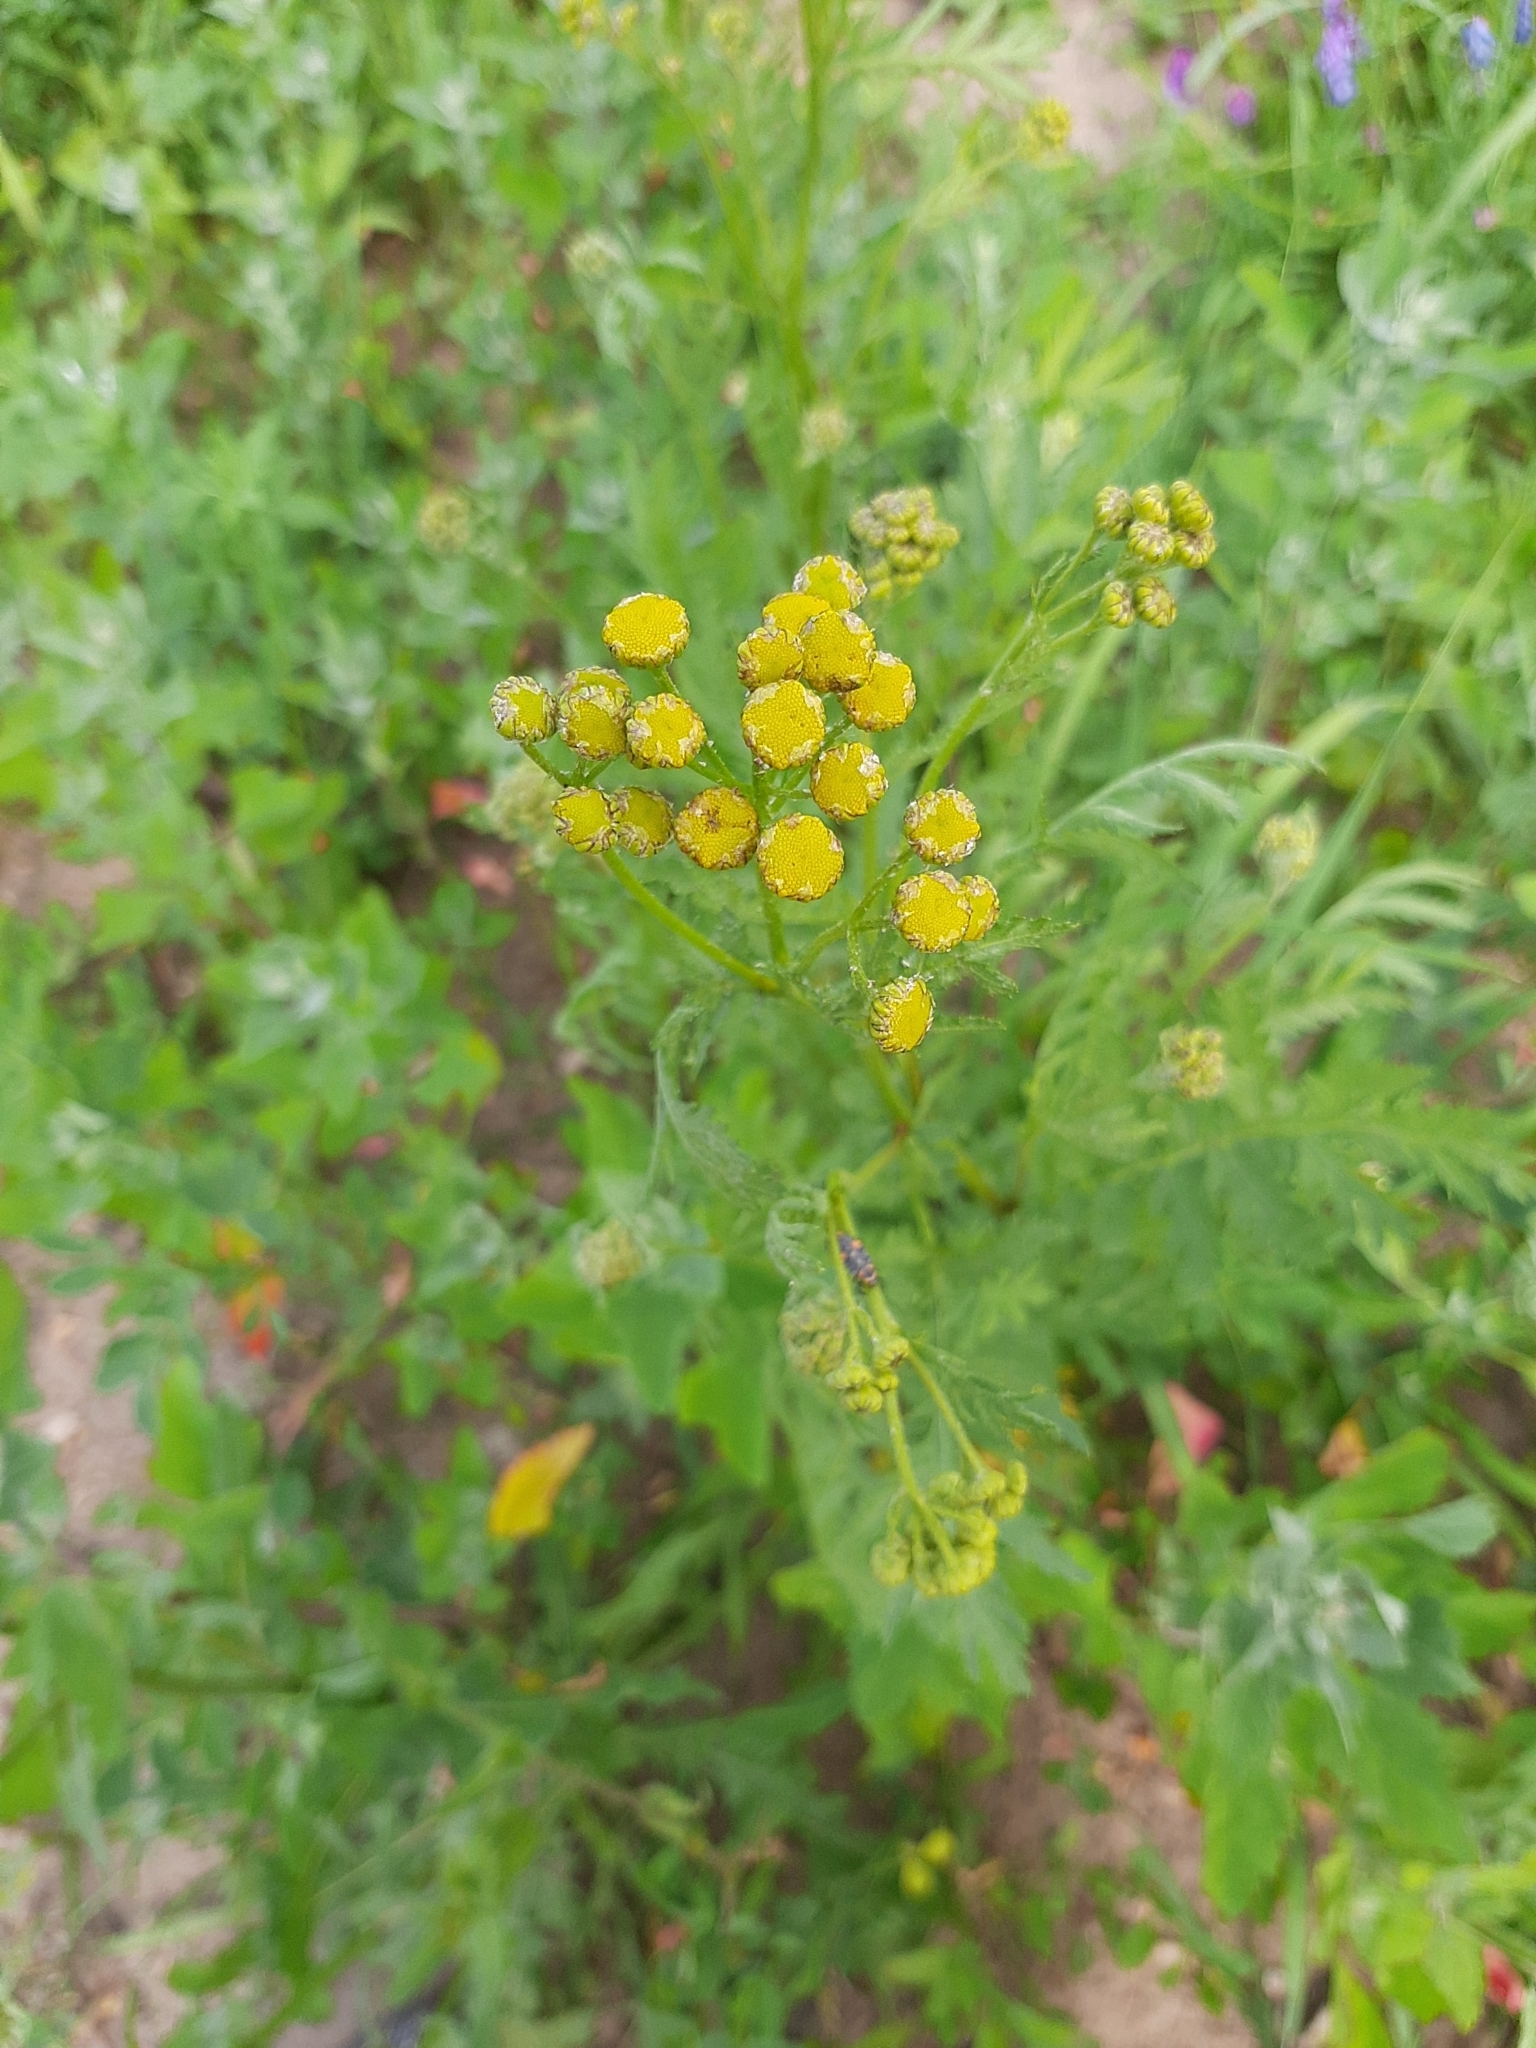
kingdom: Plantae
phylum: Tracheophyta
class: Magnoliopsida
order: Asterales
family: Asteraceae
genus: Tanacetum
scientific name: Tanacetum vulgare
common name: Common tansy
